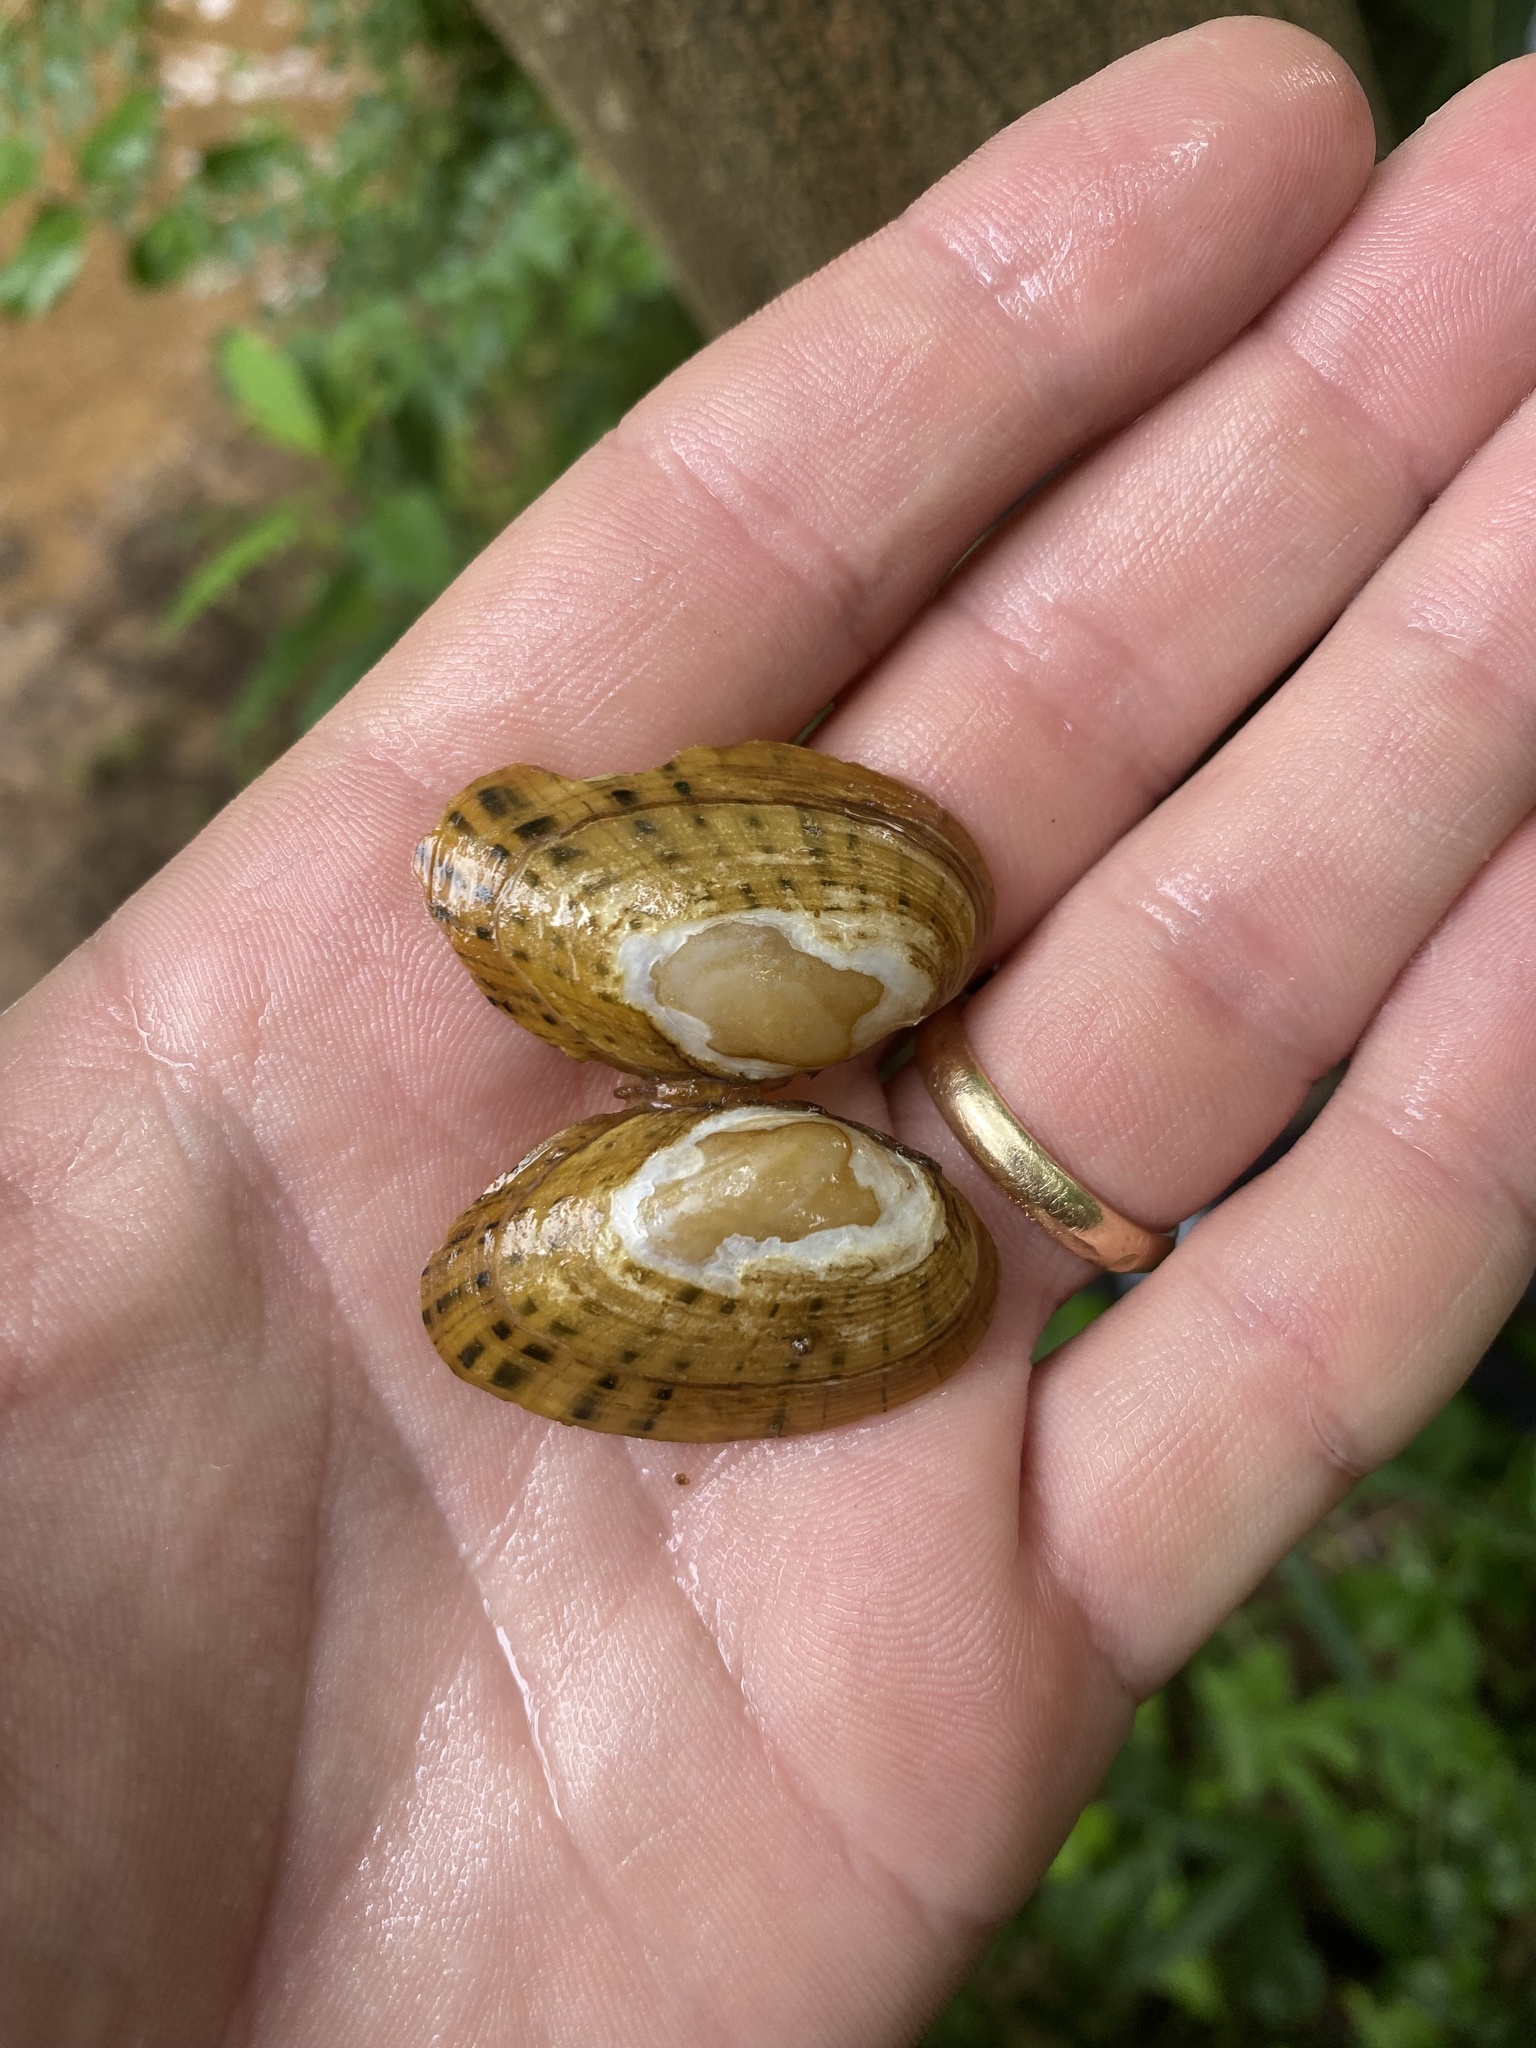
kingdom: Animalia
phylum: Mollusca
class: Bivalvia
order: Unionida
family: Unionidae
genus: Cambarunio
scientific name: Cambarunio taeniatus
